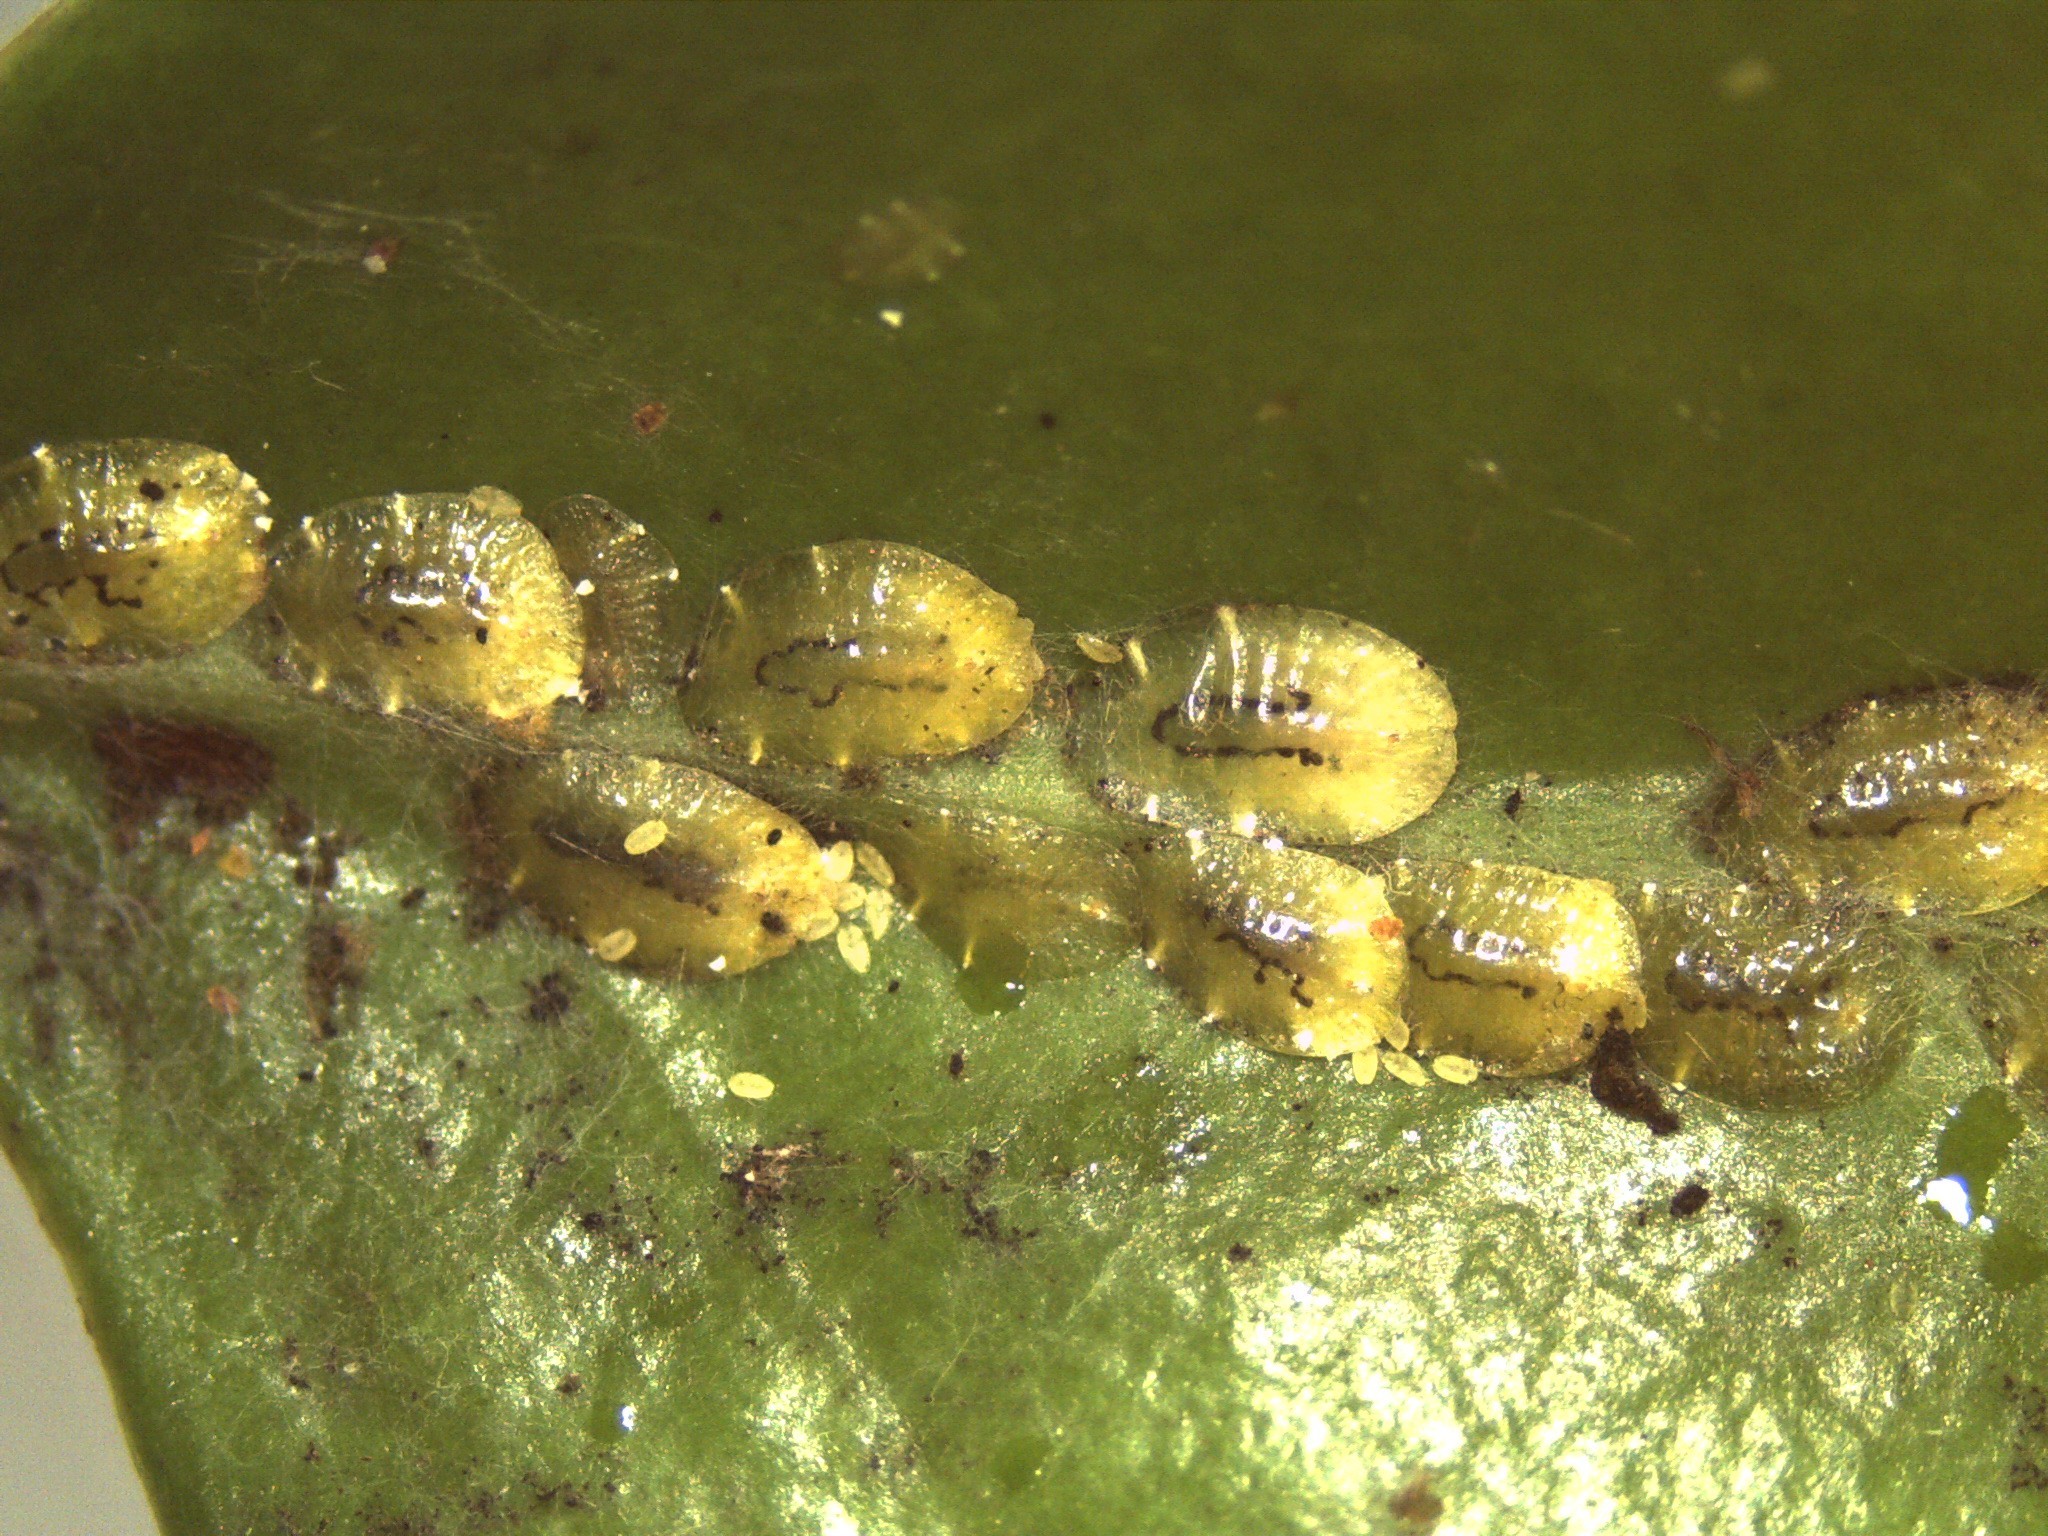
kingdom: Animalia
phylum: Arthropoda
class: Insecta
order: Hemiptera
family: Coccidae
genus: Coccus
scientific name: Coccus viridis
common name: Green scale
